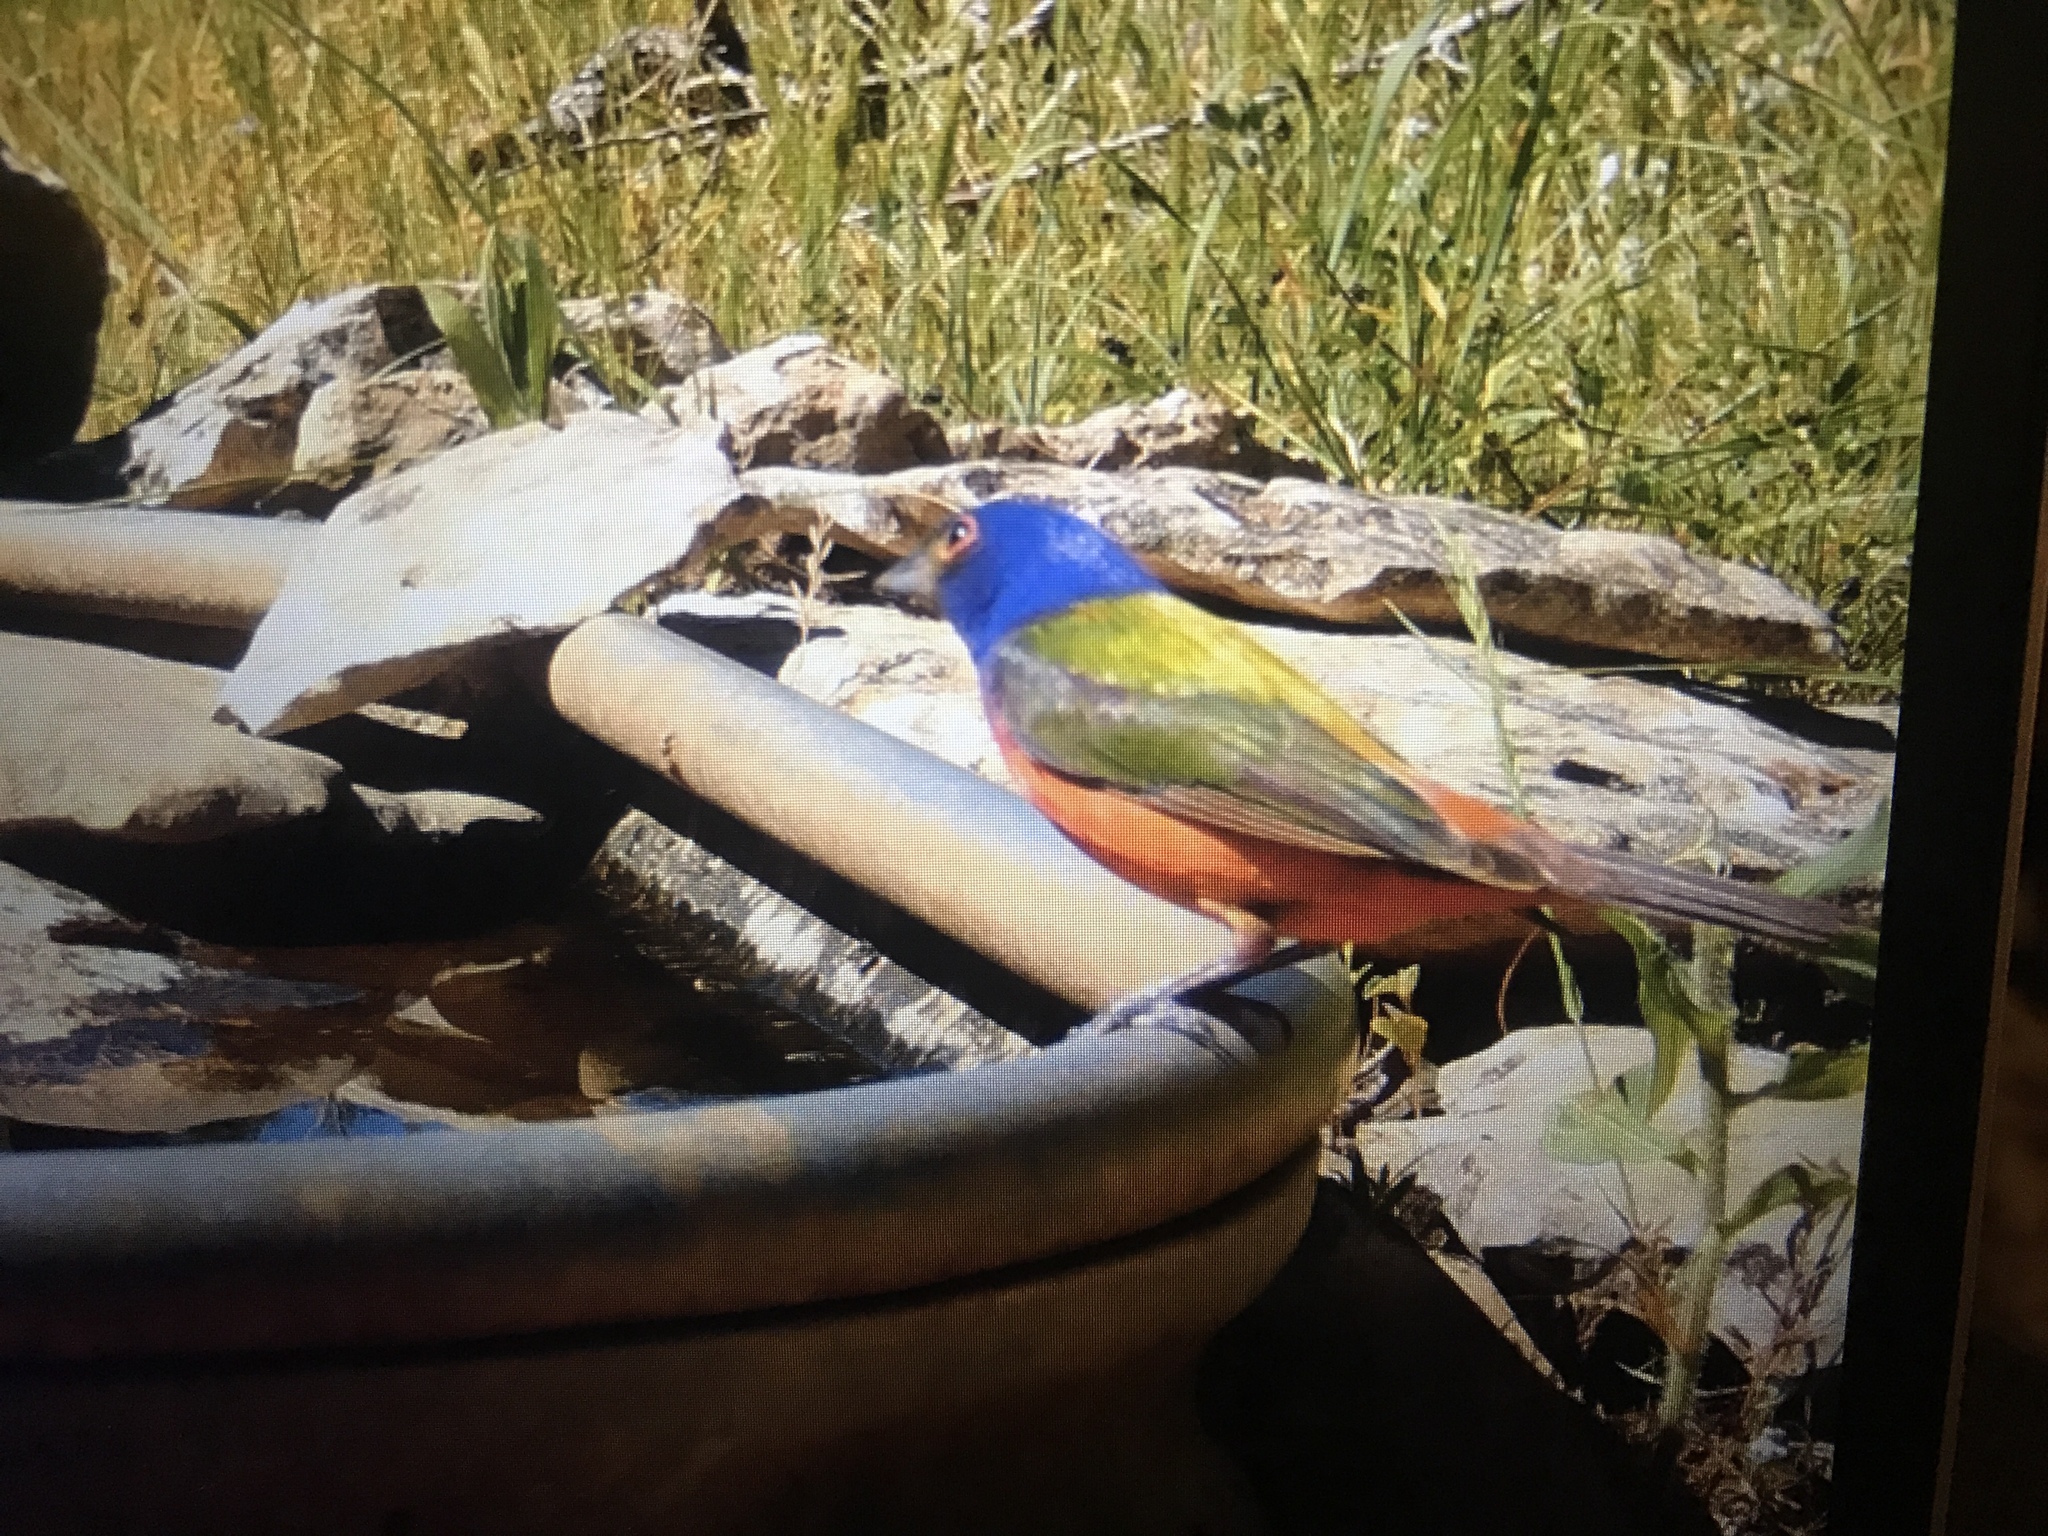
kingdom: Animalia
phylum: Chordata
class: Aves
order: Passeriformes
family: Cardinalidae
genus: Passerina
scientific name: Passerina ciris
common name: Painted bunting
